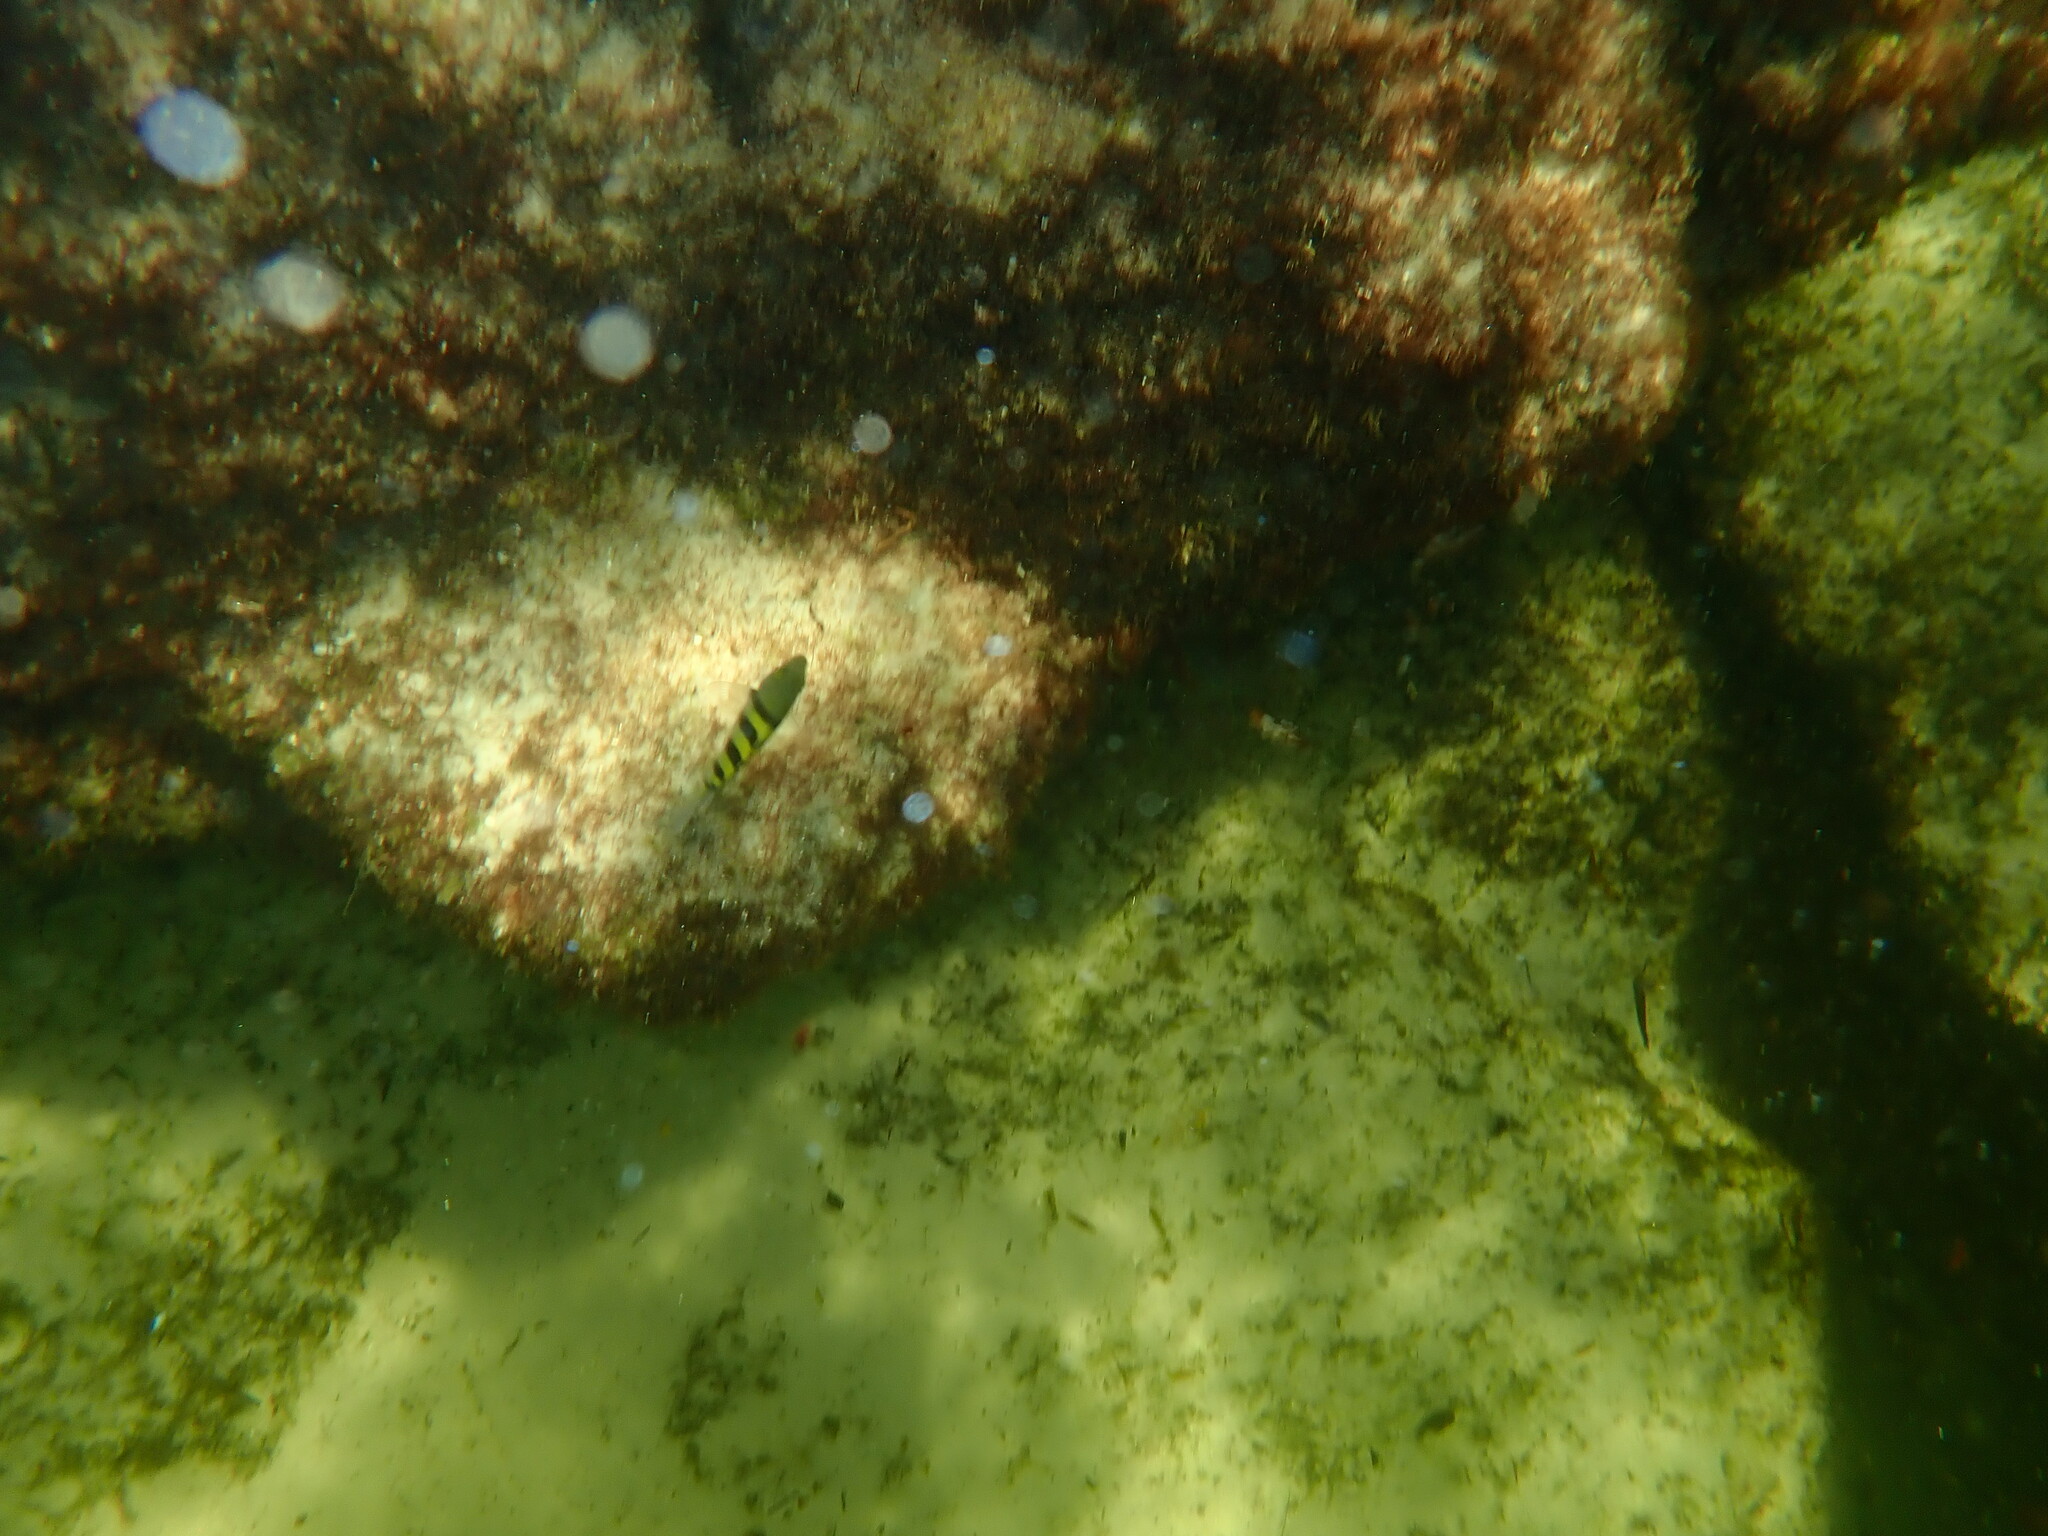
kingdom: Animalia
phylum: Chordata
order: Perciformes
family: Pomacentridae
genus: Abudefduf
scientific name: Abudefduf saxatilis
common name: Sergeant major
